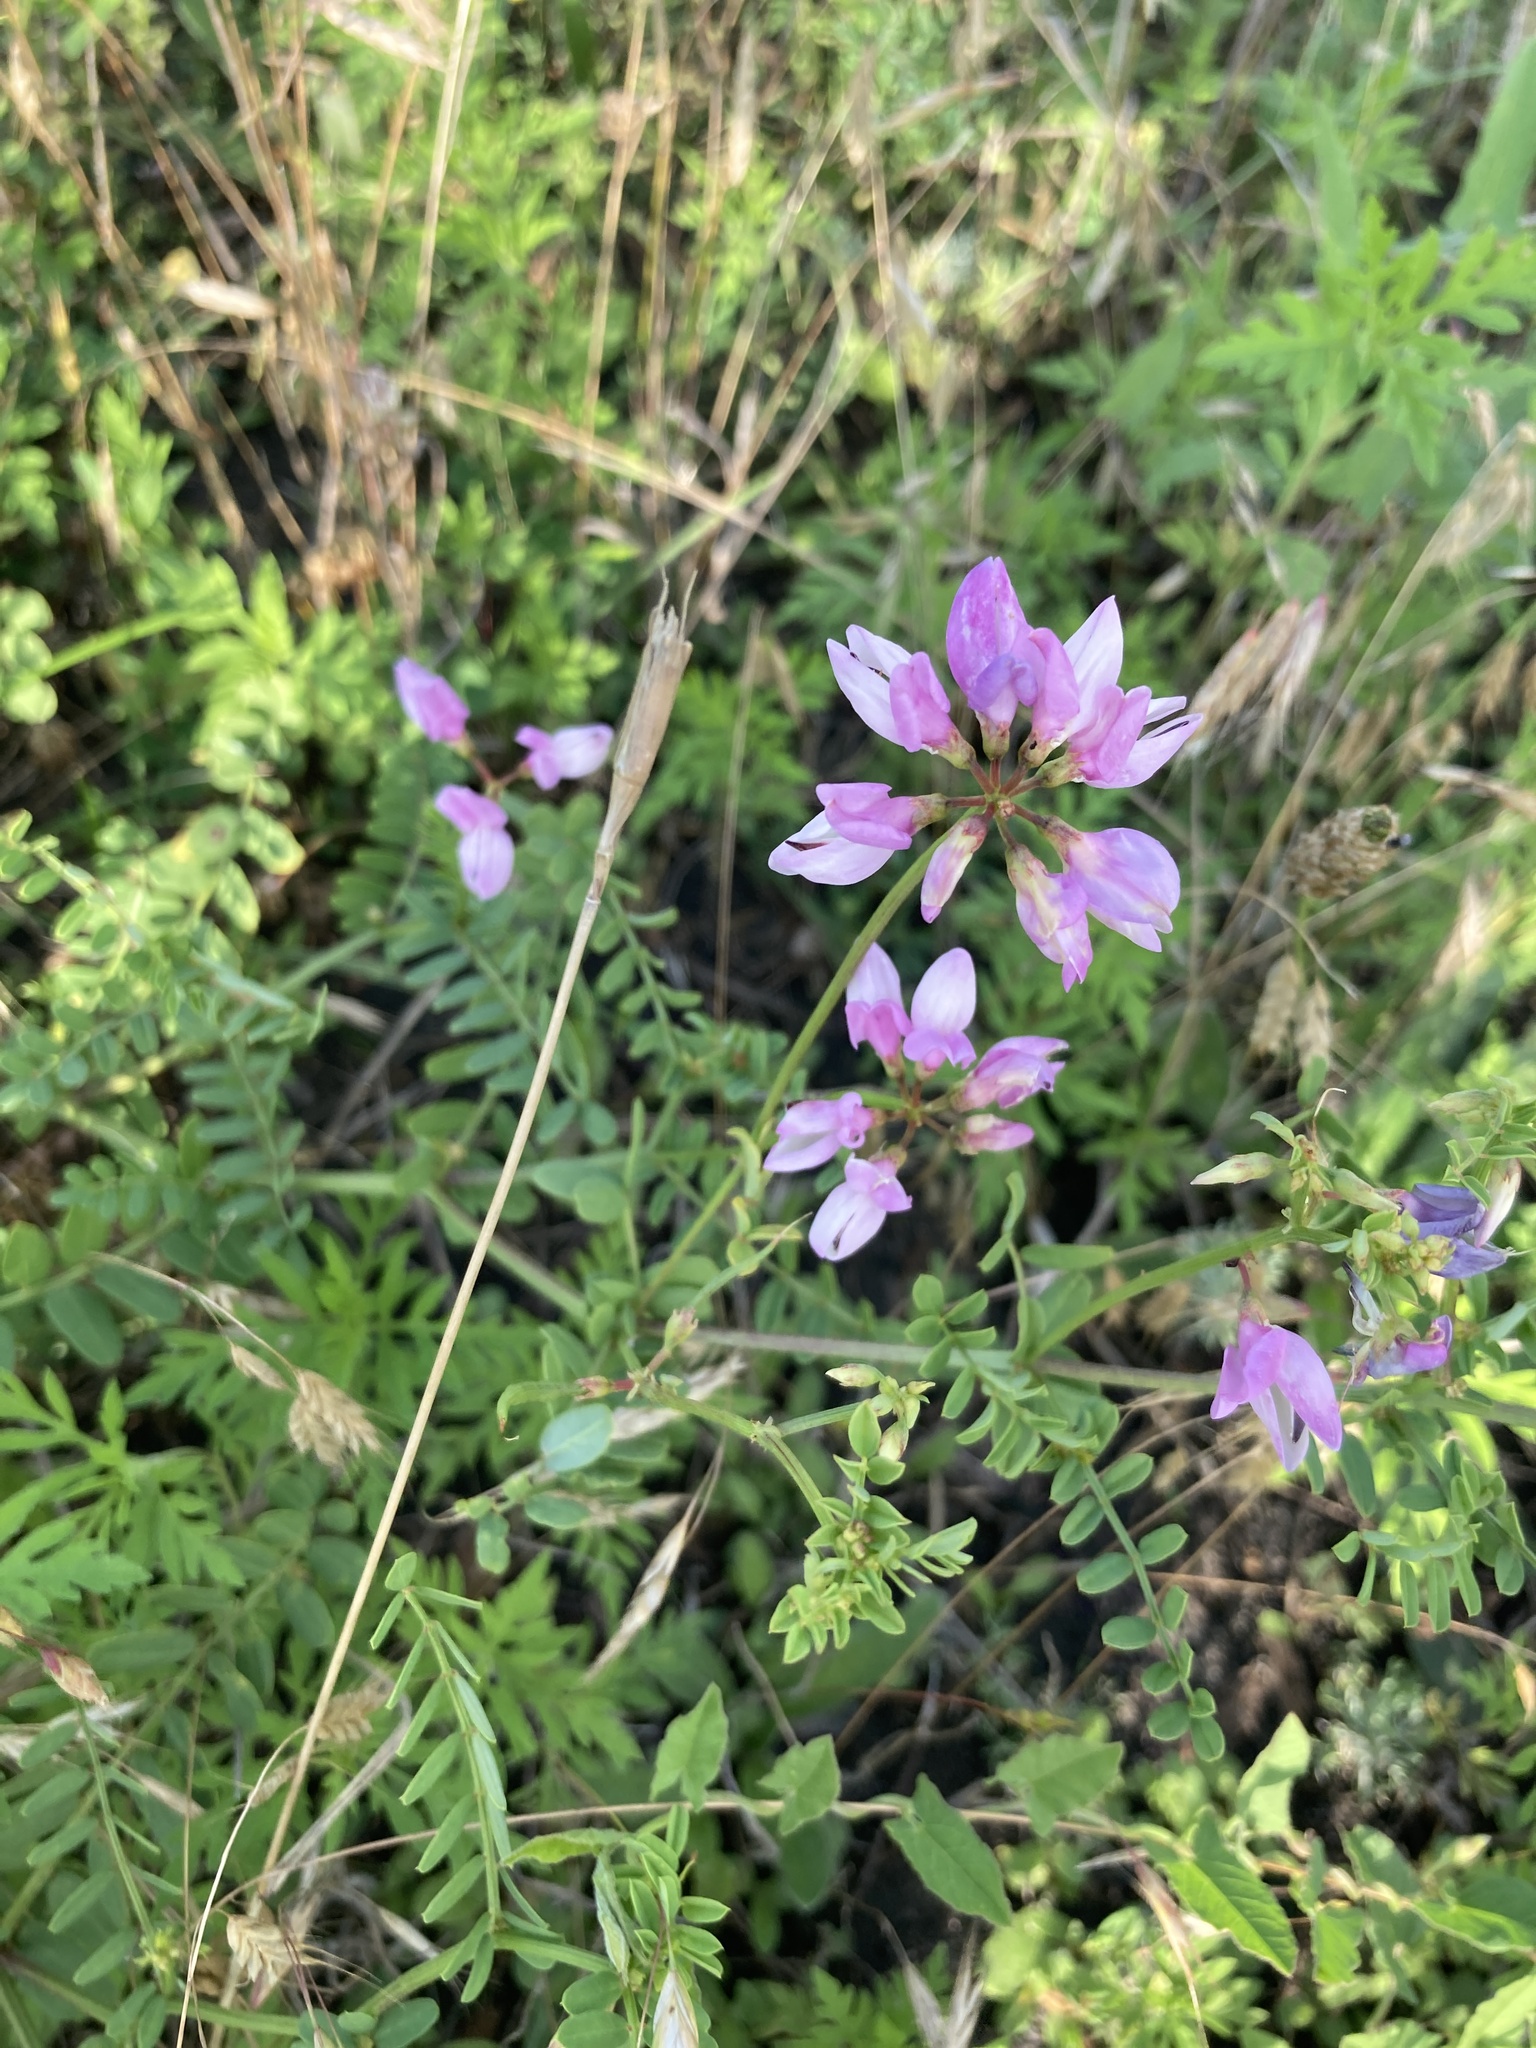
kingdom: Plantae
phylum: Tracheophyta
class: Magnoliopsida
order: Fabales
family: Fabaceae
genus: Coronilla
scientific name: Coronilla varia
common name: Crownvetch
